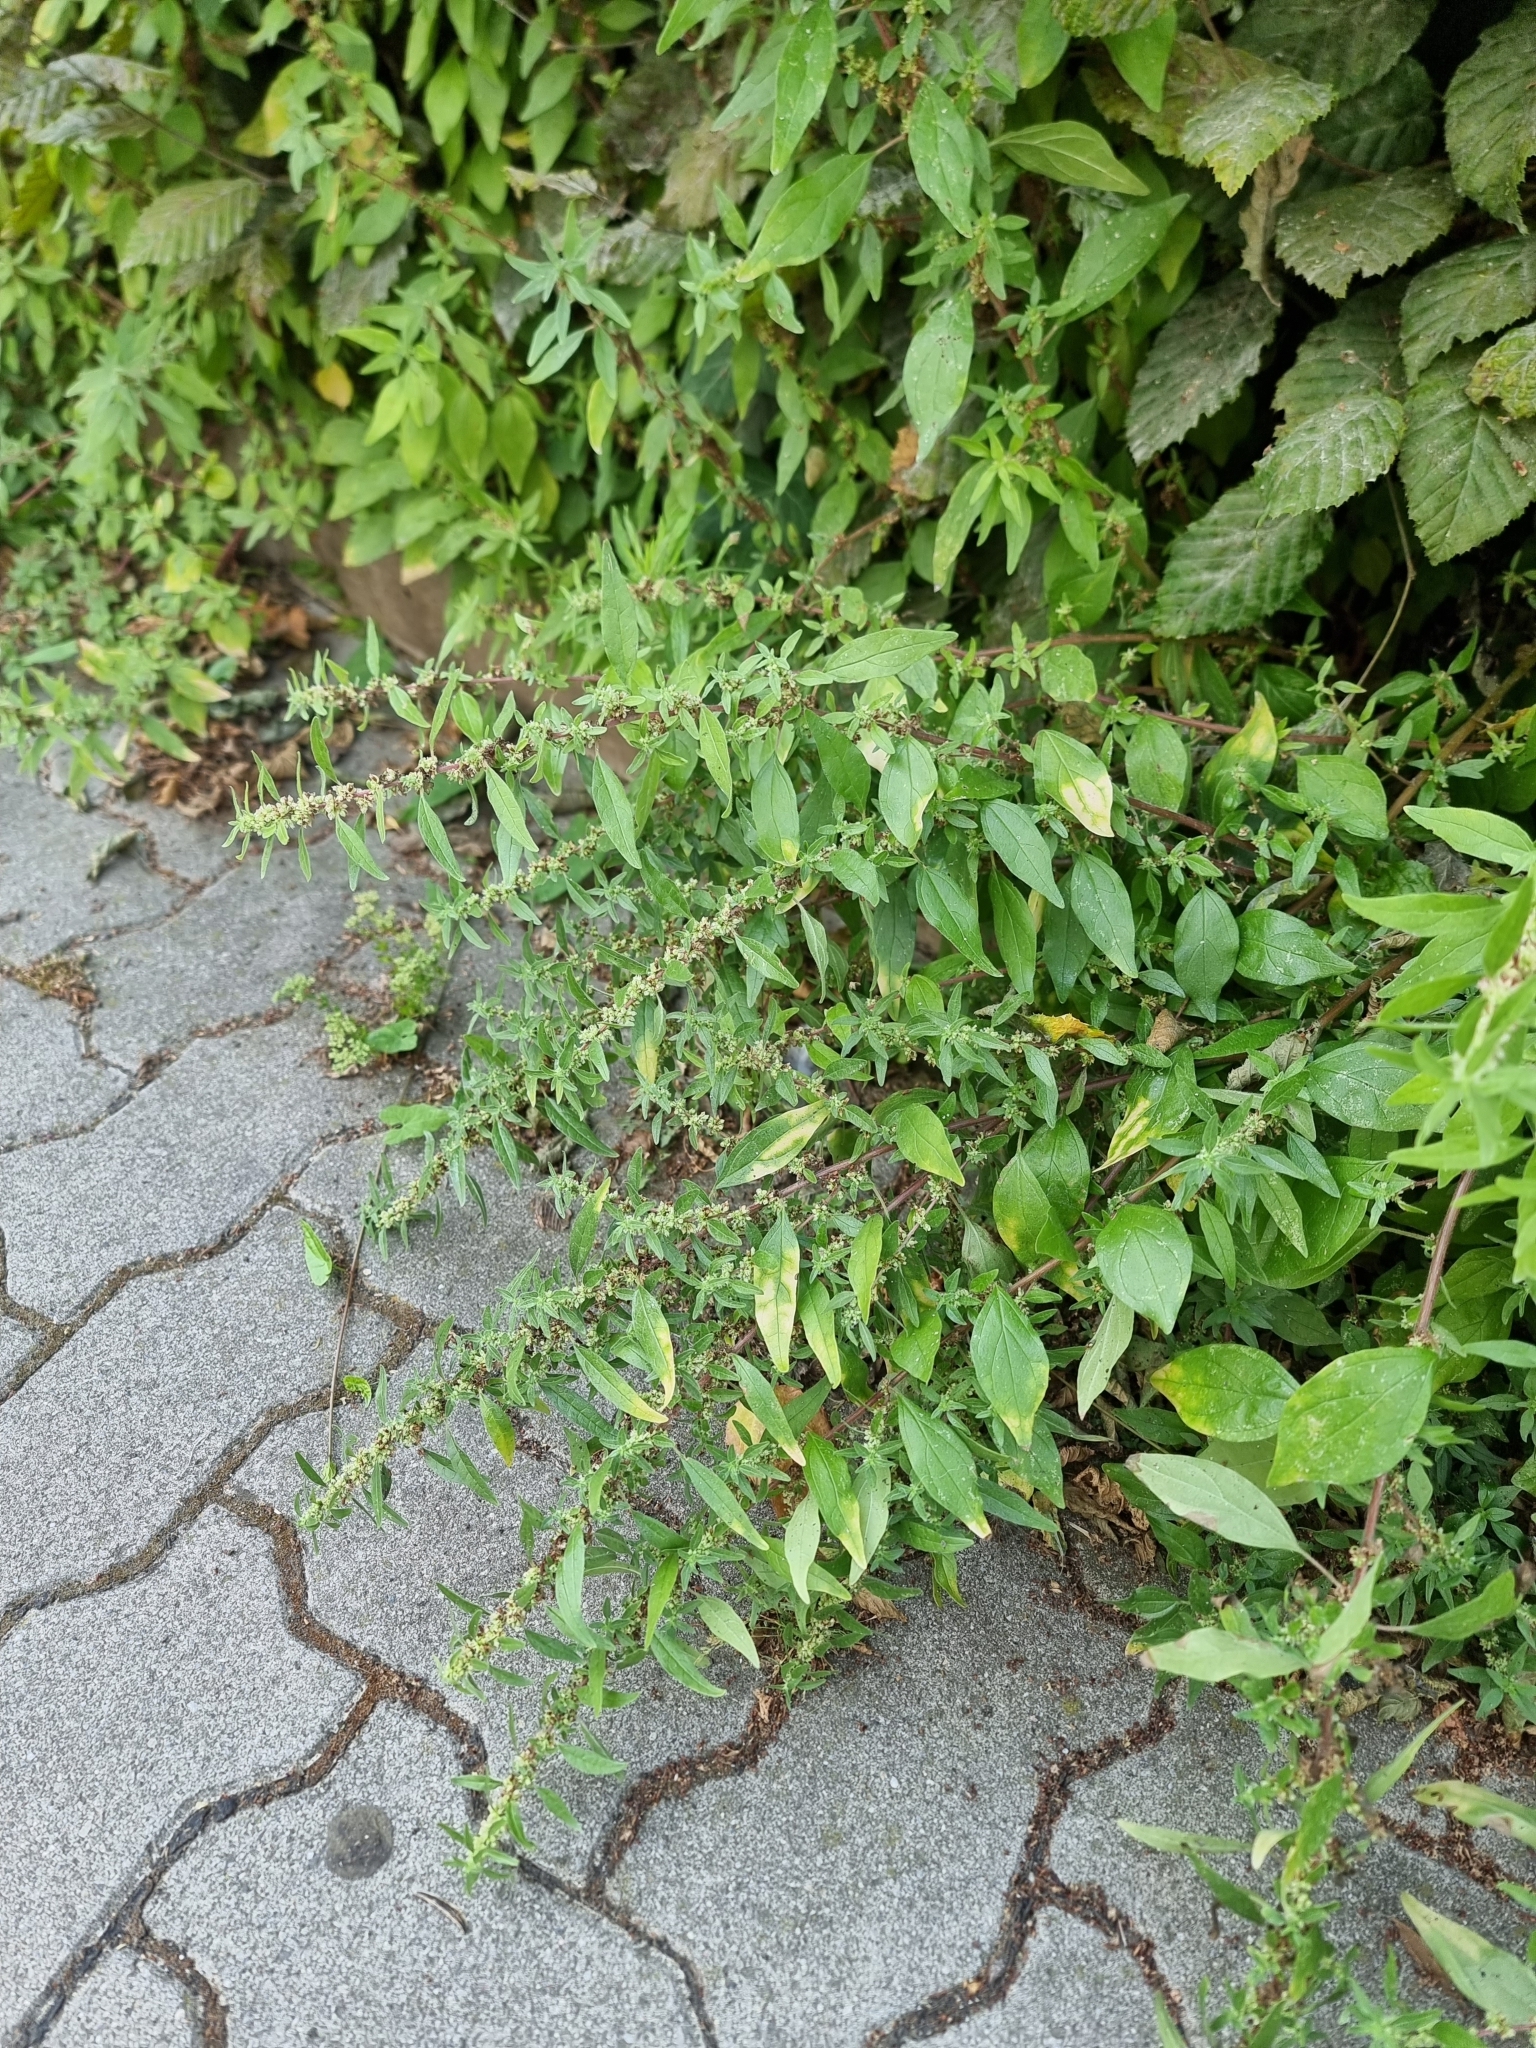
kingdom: Plantae
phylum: Tracheophyta
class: Magnoliopsida
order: Rosales
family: Urticaceae
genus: Parietaria
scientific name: Parietaria judaica
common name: Pellitory-of-the-wall
